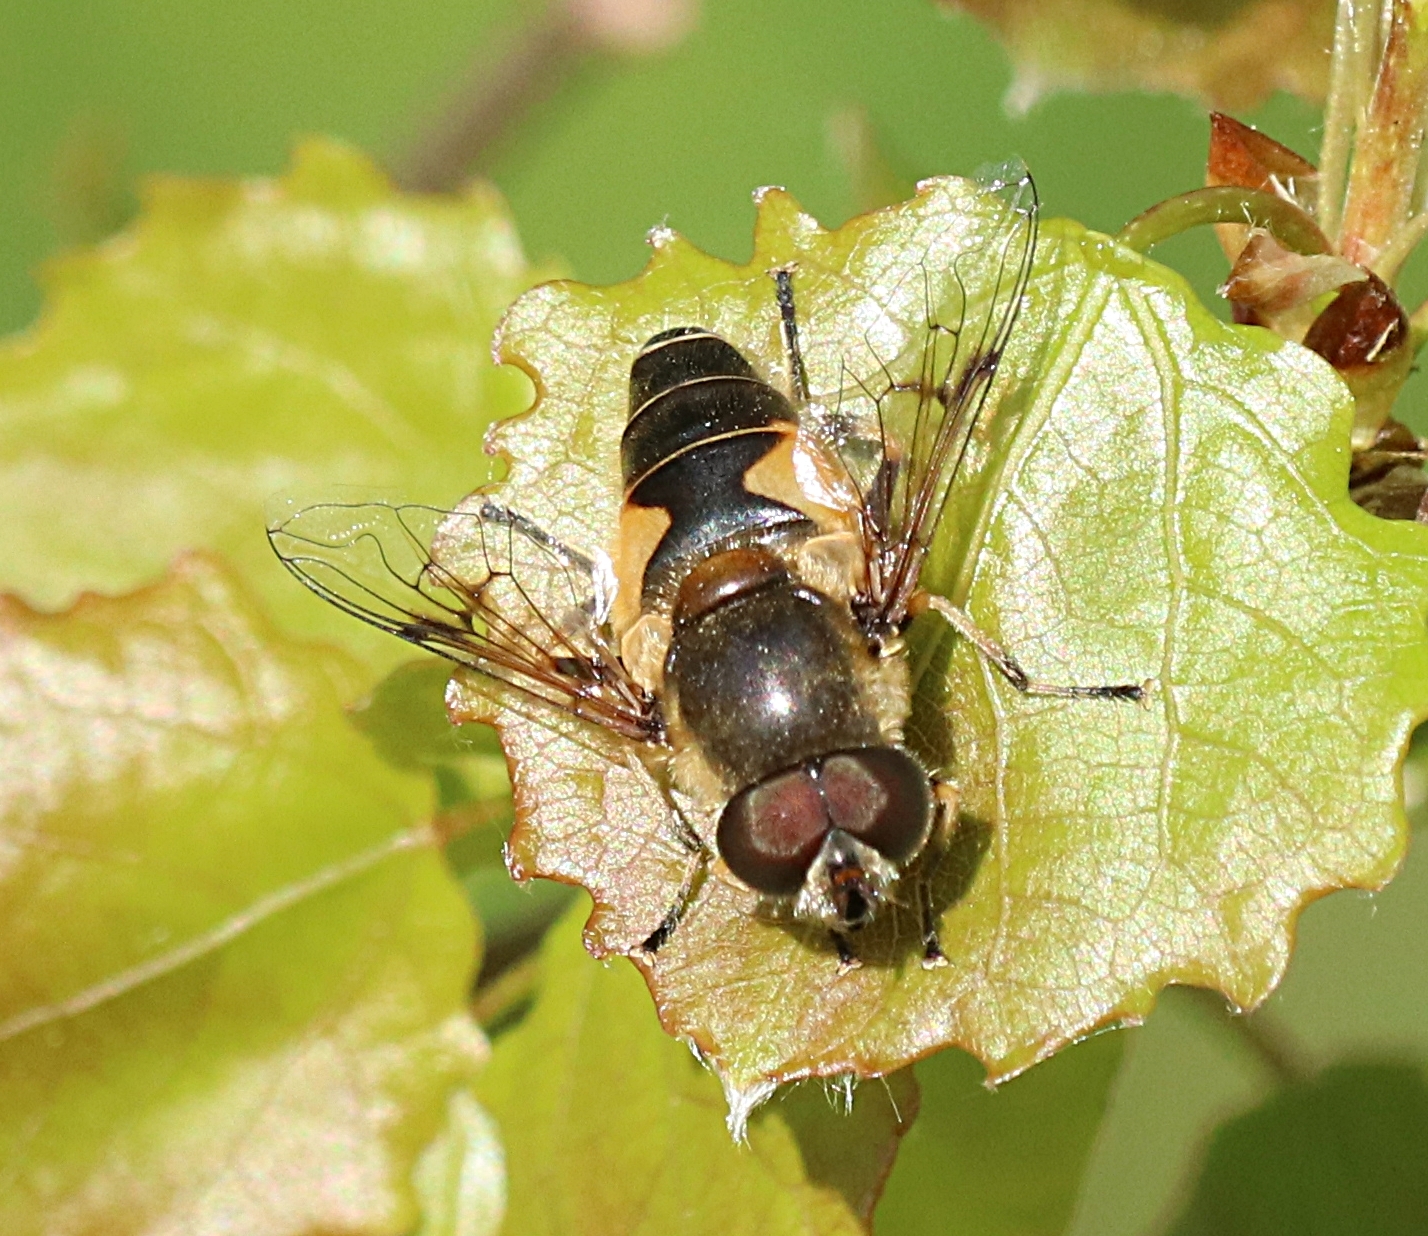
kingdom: Animalia
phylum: Arthropoda
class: Insecta
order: Diptera
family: Syrphidae
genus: Cheilosia
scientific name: Cheilosia morio
